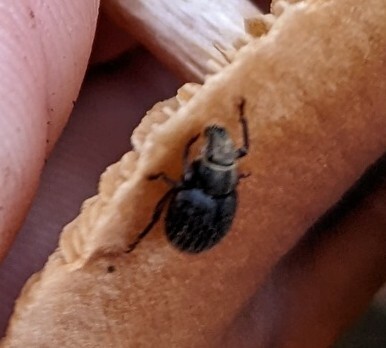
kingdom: Animalia
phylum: Arthropoda
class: Insecta
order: Coleoptera
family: Curculionidae
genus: Strophosoma
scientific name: Strophosoma melanogrammum
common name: Weevil
